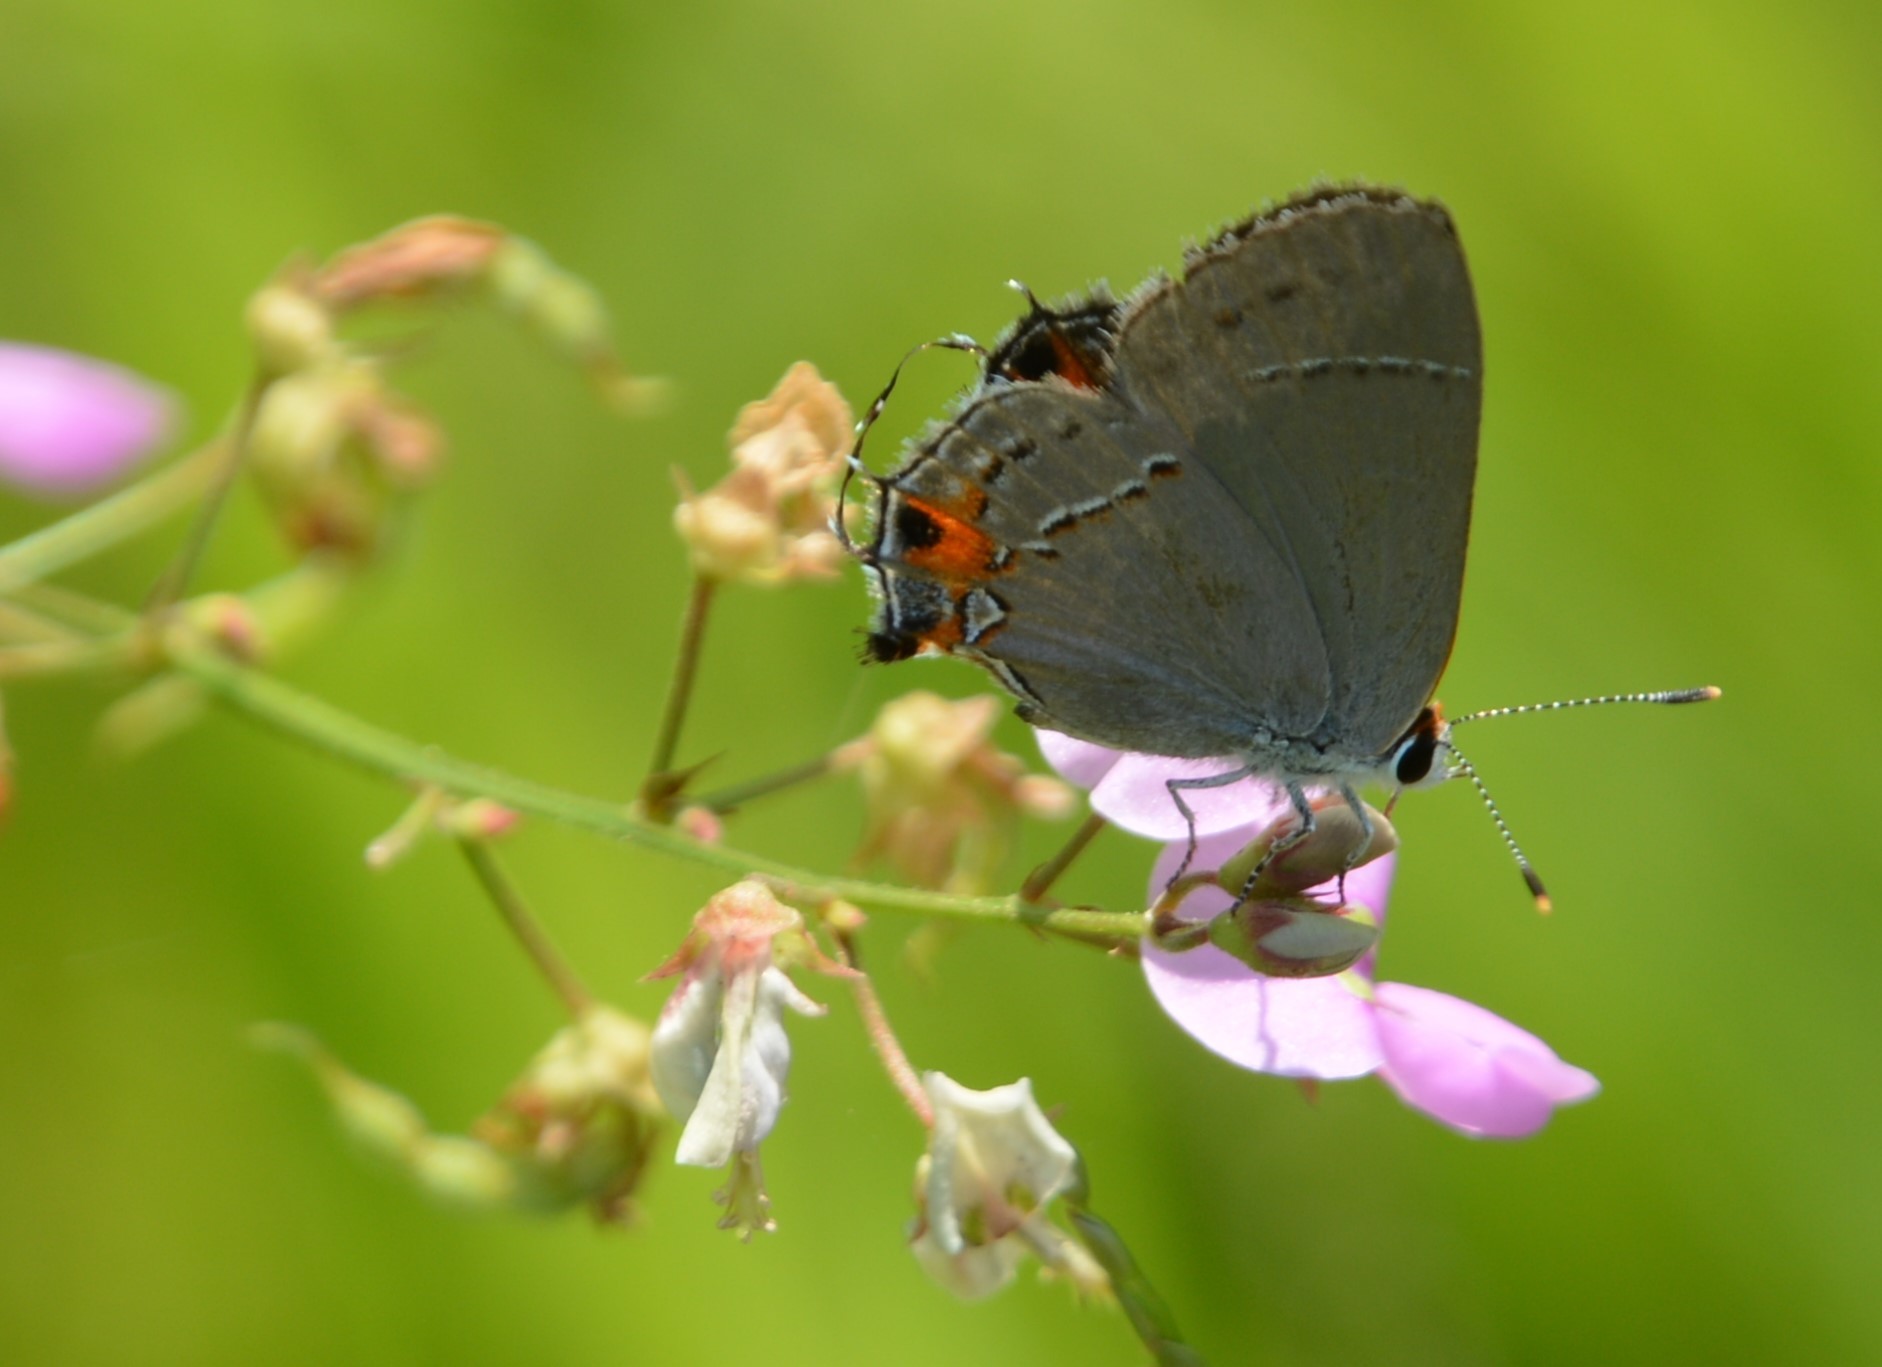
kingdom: Animalia
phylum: Arthropoda
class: Insecta
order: Lepidoptera
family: Lycaenidae
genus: Strymon
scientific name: Strymon melinus
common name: Gray hairstreak
